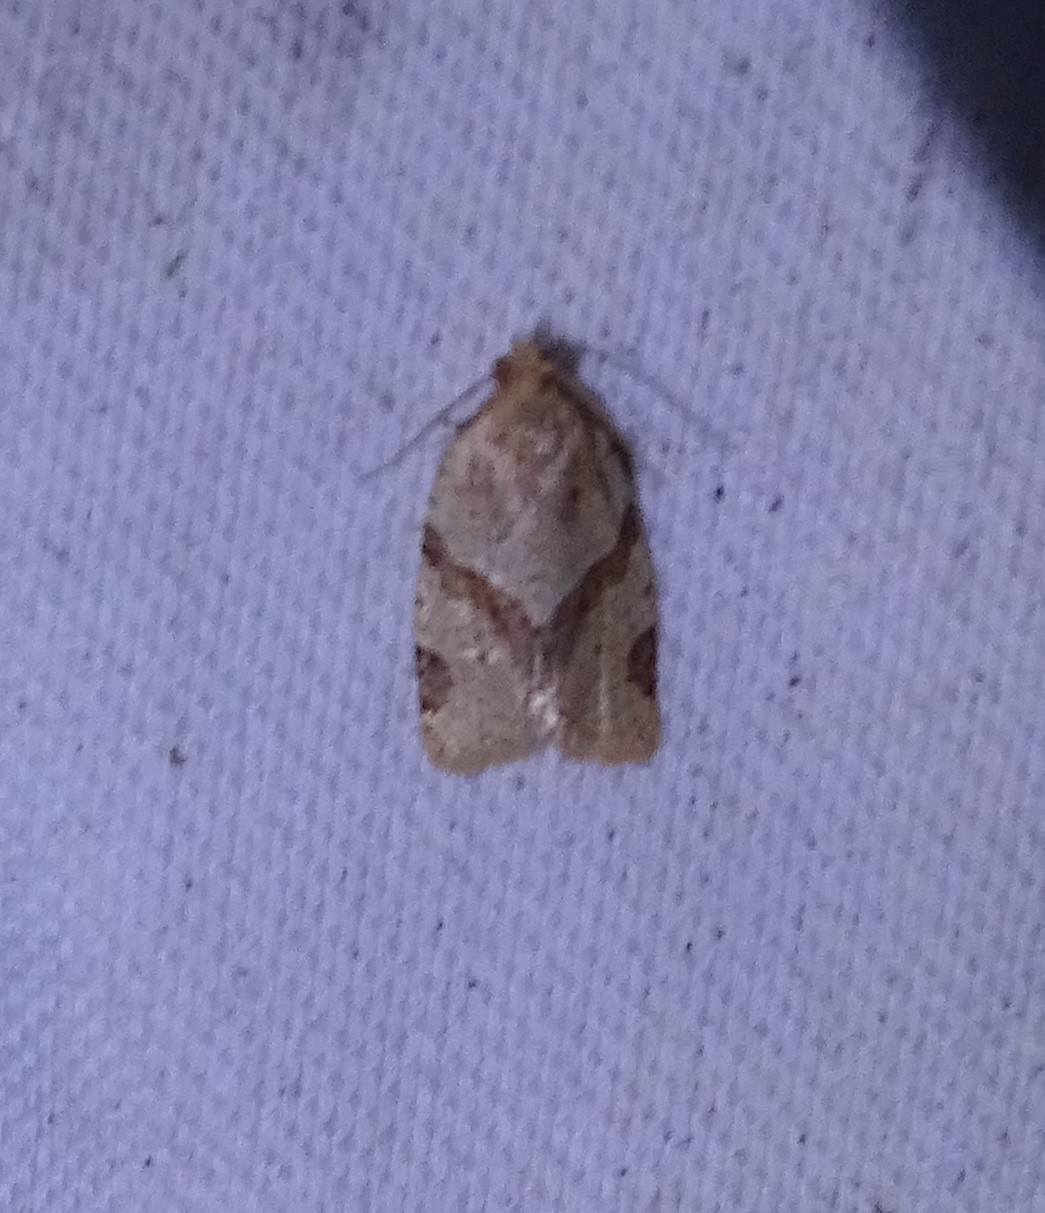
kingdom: Animalia
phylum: Arthropoda
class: Insecta
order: Lepidoptera
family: Tortricidae
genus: Clepsis
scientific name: Clepsis peritana
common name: Garden tortrix
